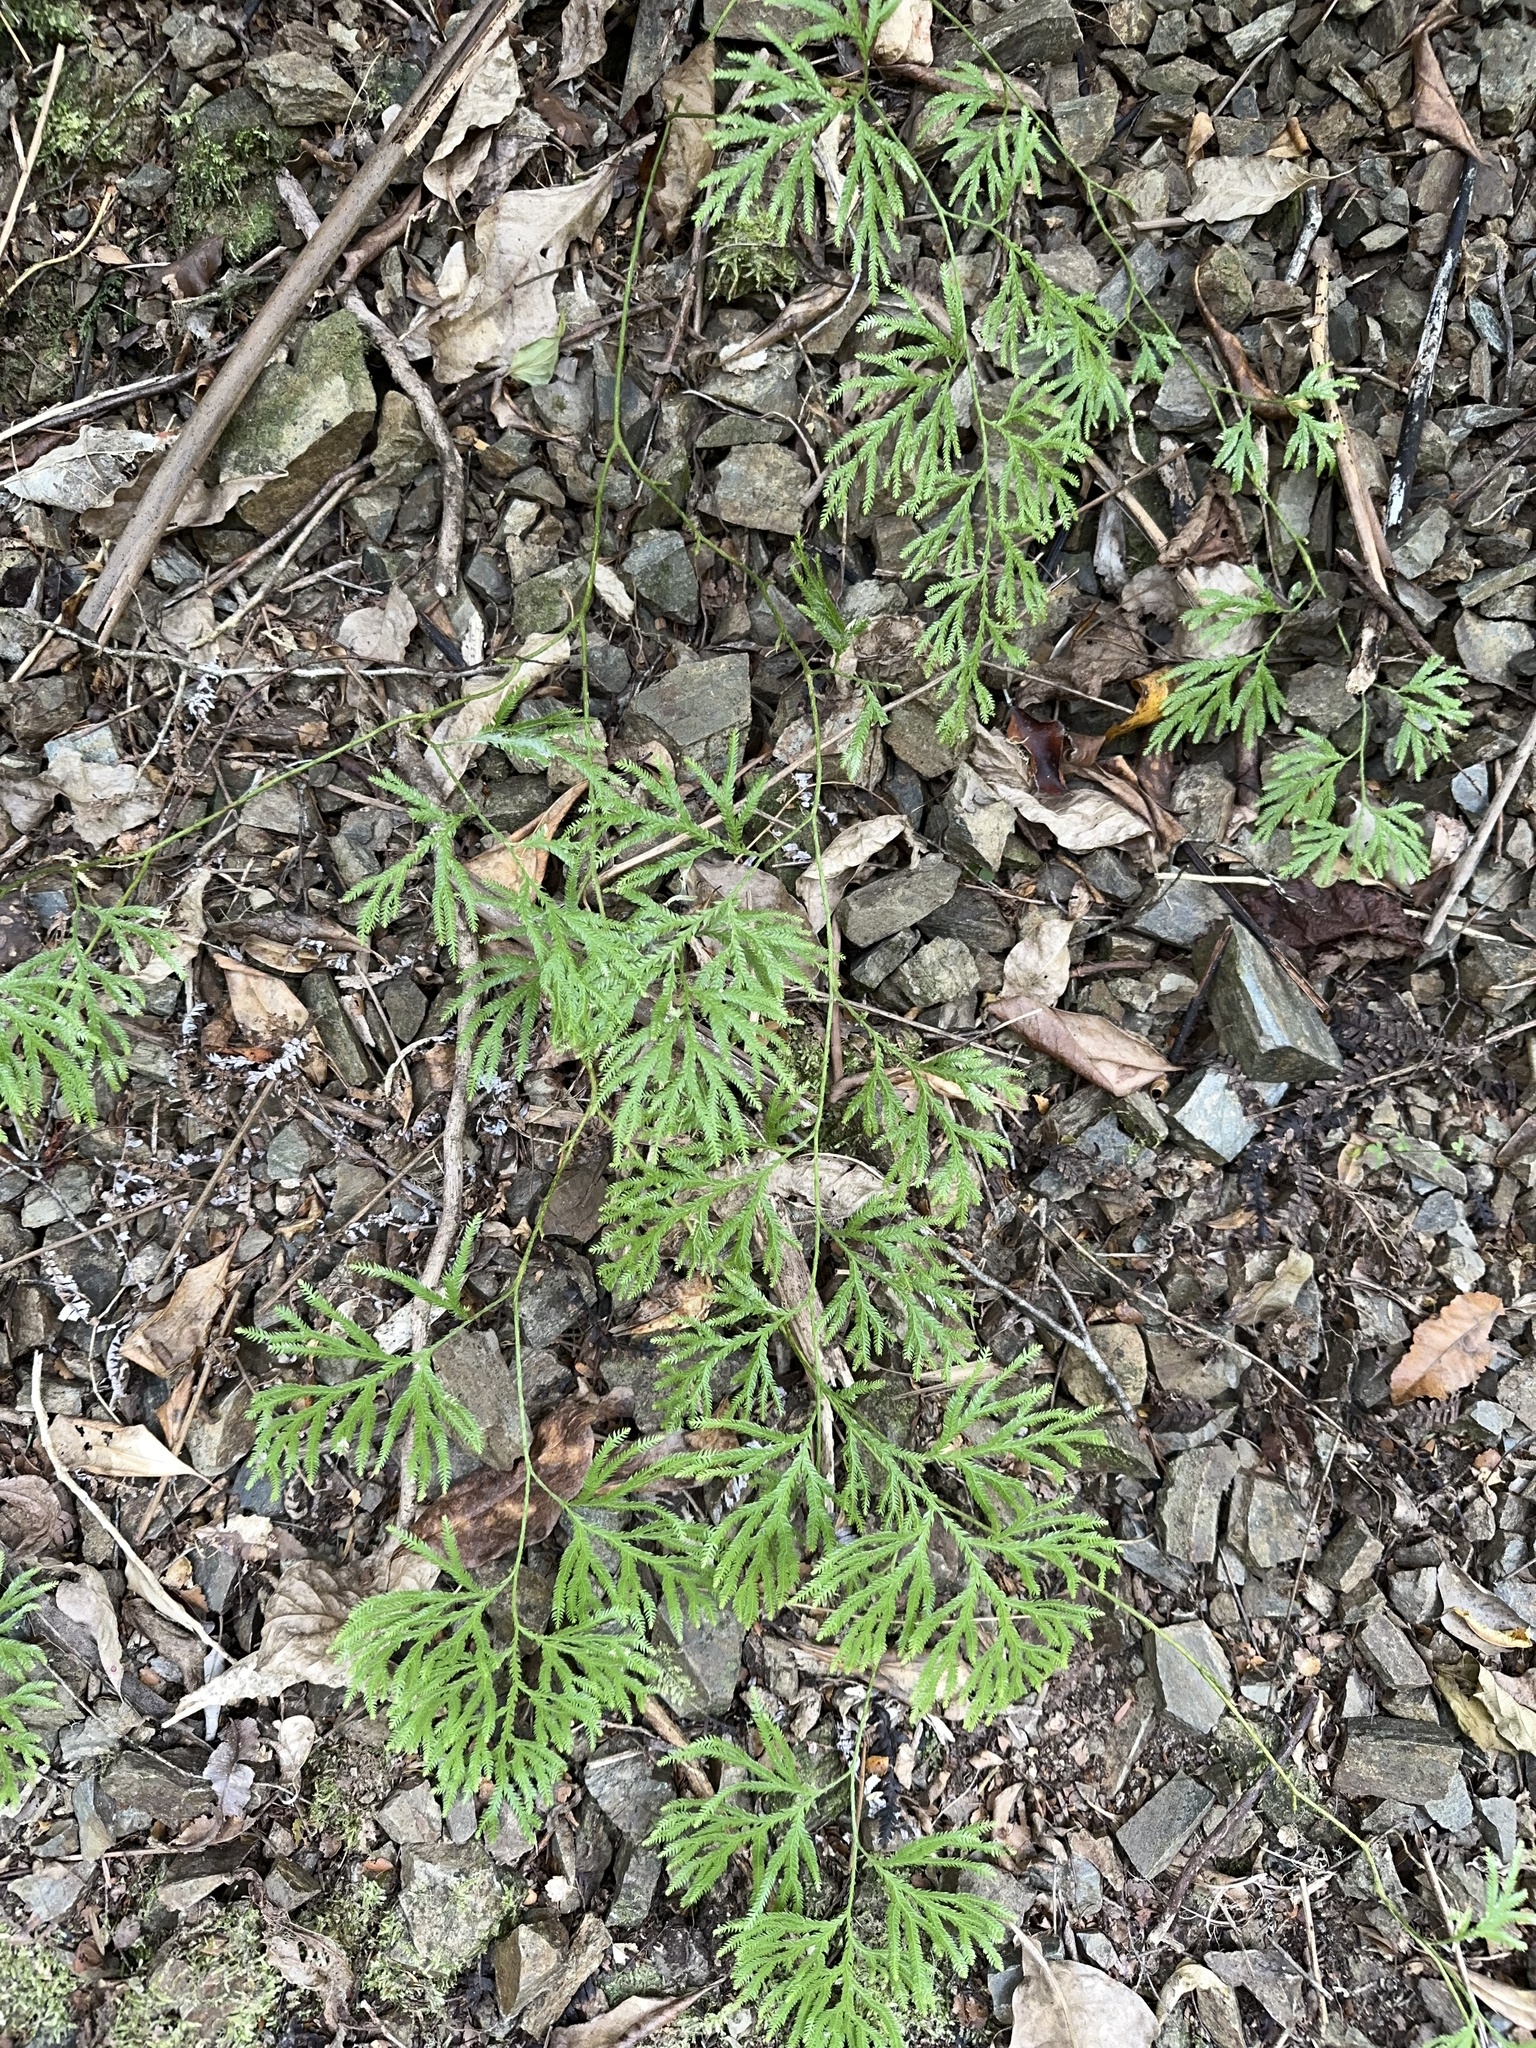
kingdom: Plantae
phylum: Tracheophyta
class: Lycopodiopsida
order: Lycopodiales
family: Lycopodiaceae
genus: Lycopodium
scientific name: Lycopodium volubile
